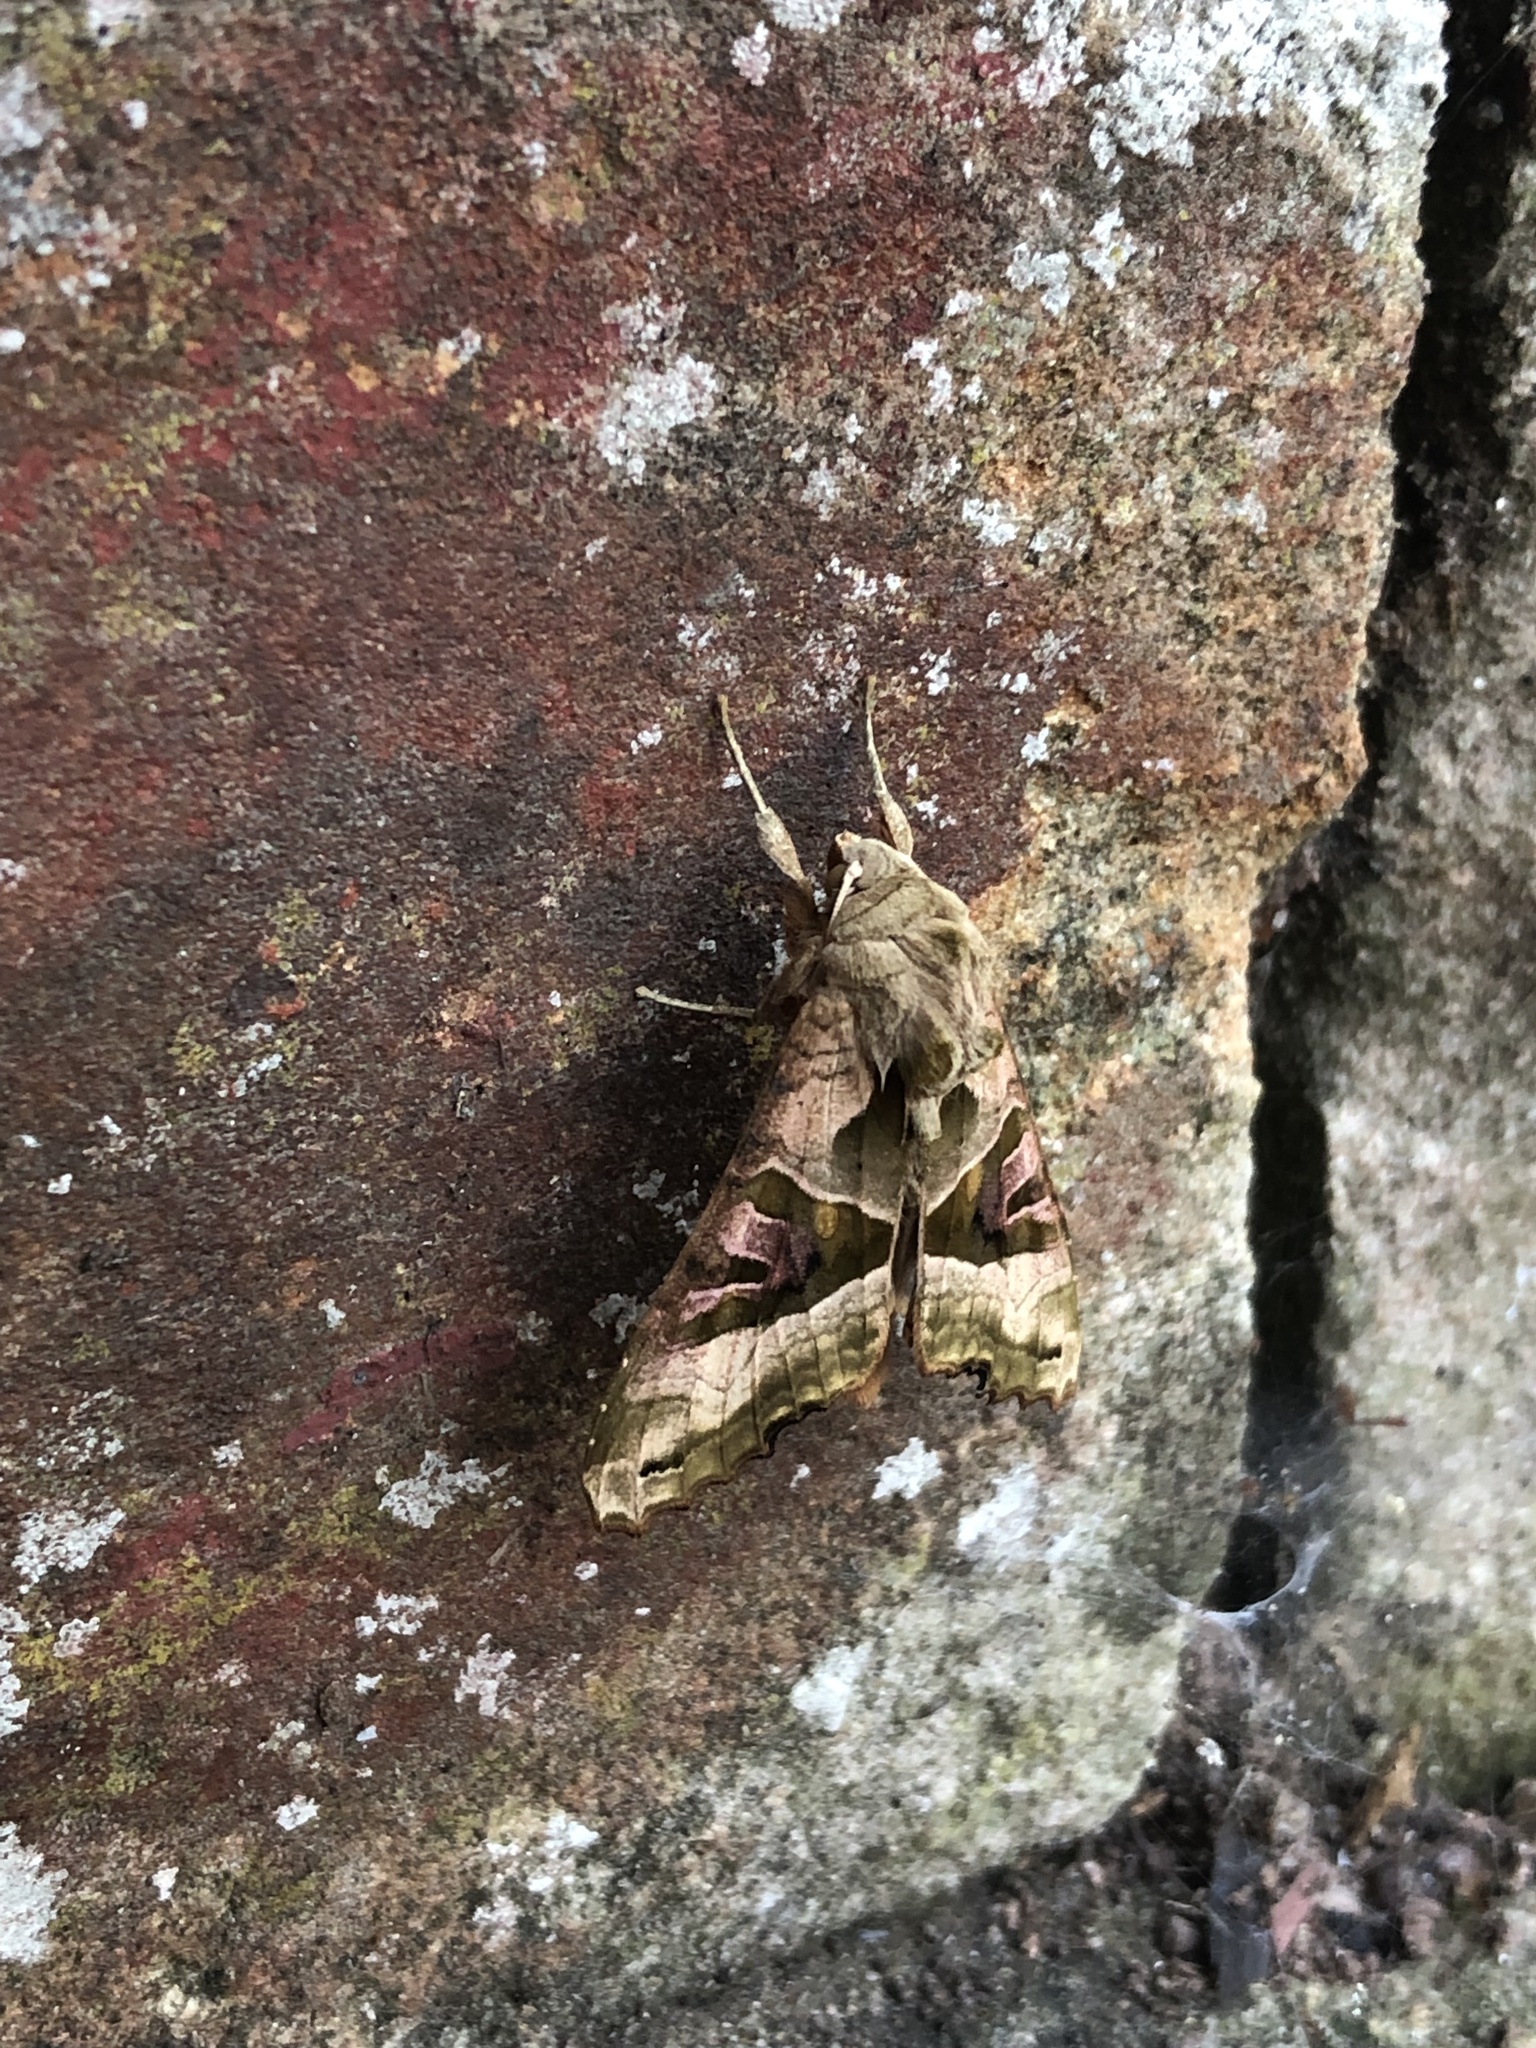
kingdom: Animalia
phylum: Arthropoda
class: Insecta
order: Lepidoptera
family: Noctuidae
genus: Phlogophora
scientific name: Phlogophora meticulosa
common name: Angle shades
